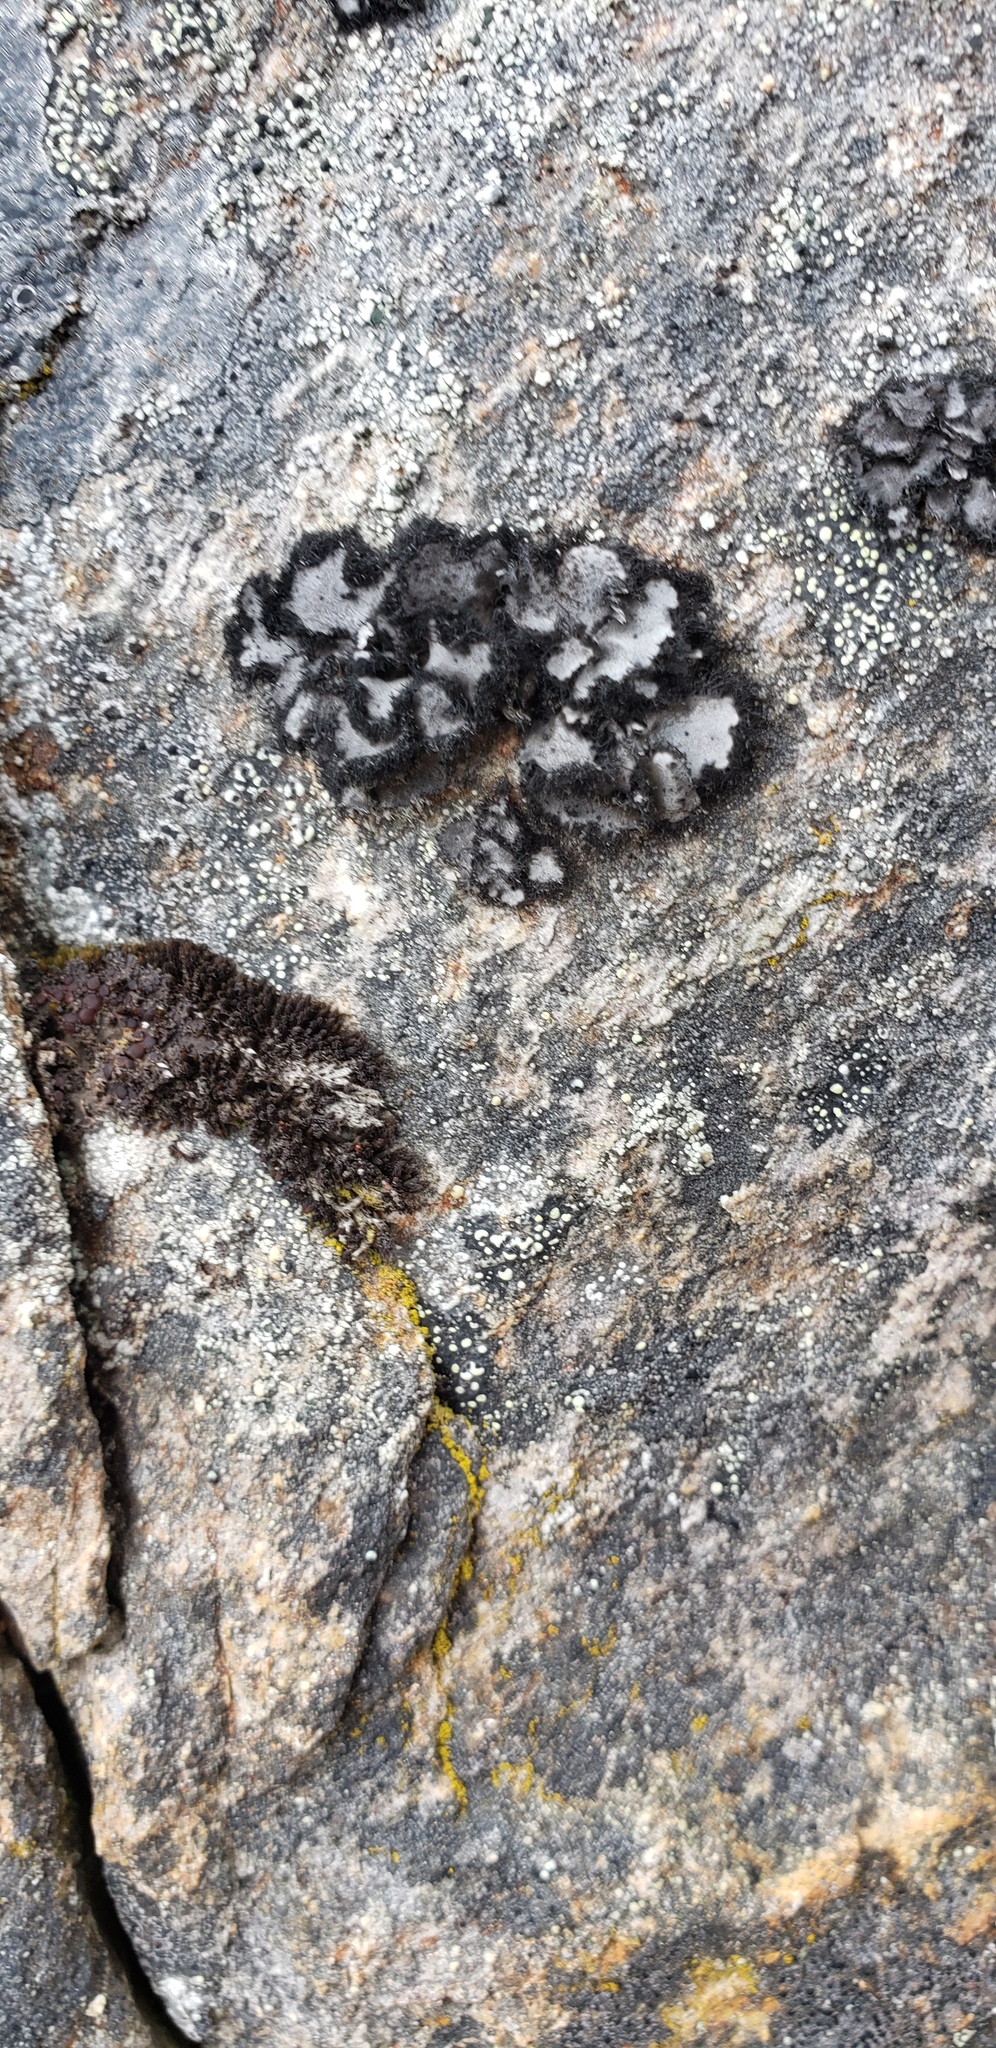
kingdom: Fungi
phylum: Ascomycota
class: Lecanoromycetes
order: Umbilicariales
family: Umbilicariaceae
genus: Umbilicaria
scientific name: Umbilicaria cylindrica
